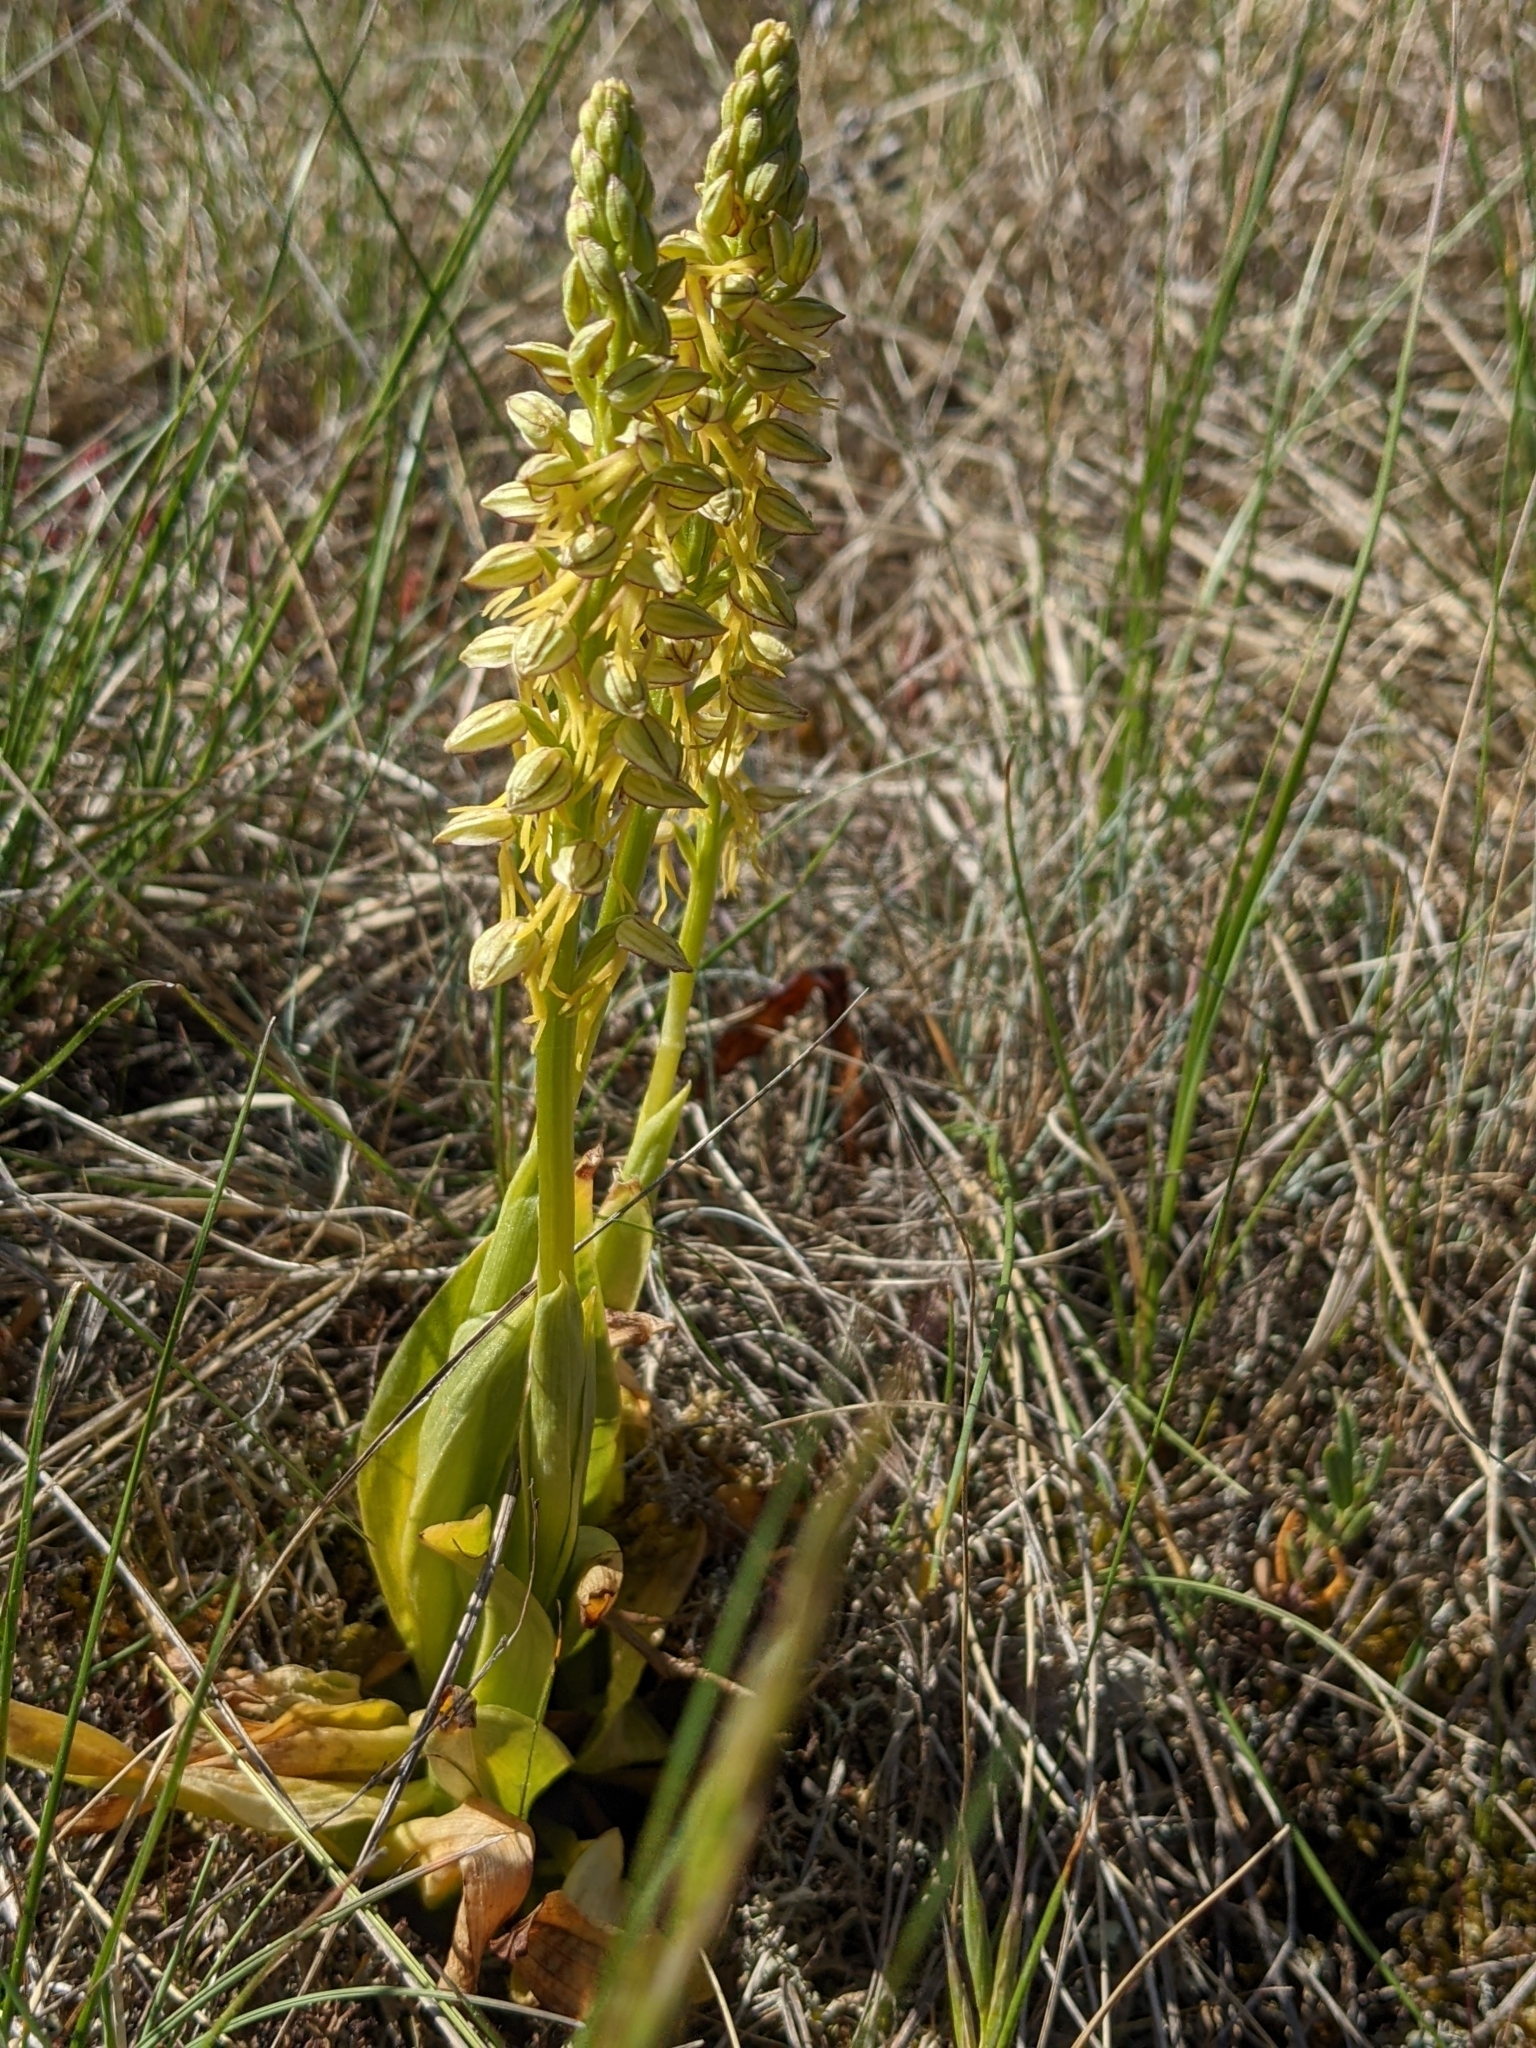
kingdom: Plantae
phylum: Tracheophyta
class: Liliopsida
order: Asparagales
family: Orchidaceae
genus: Orchis
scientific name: Orchis anthropophora
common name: Man orchid
